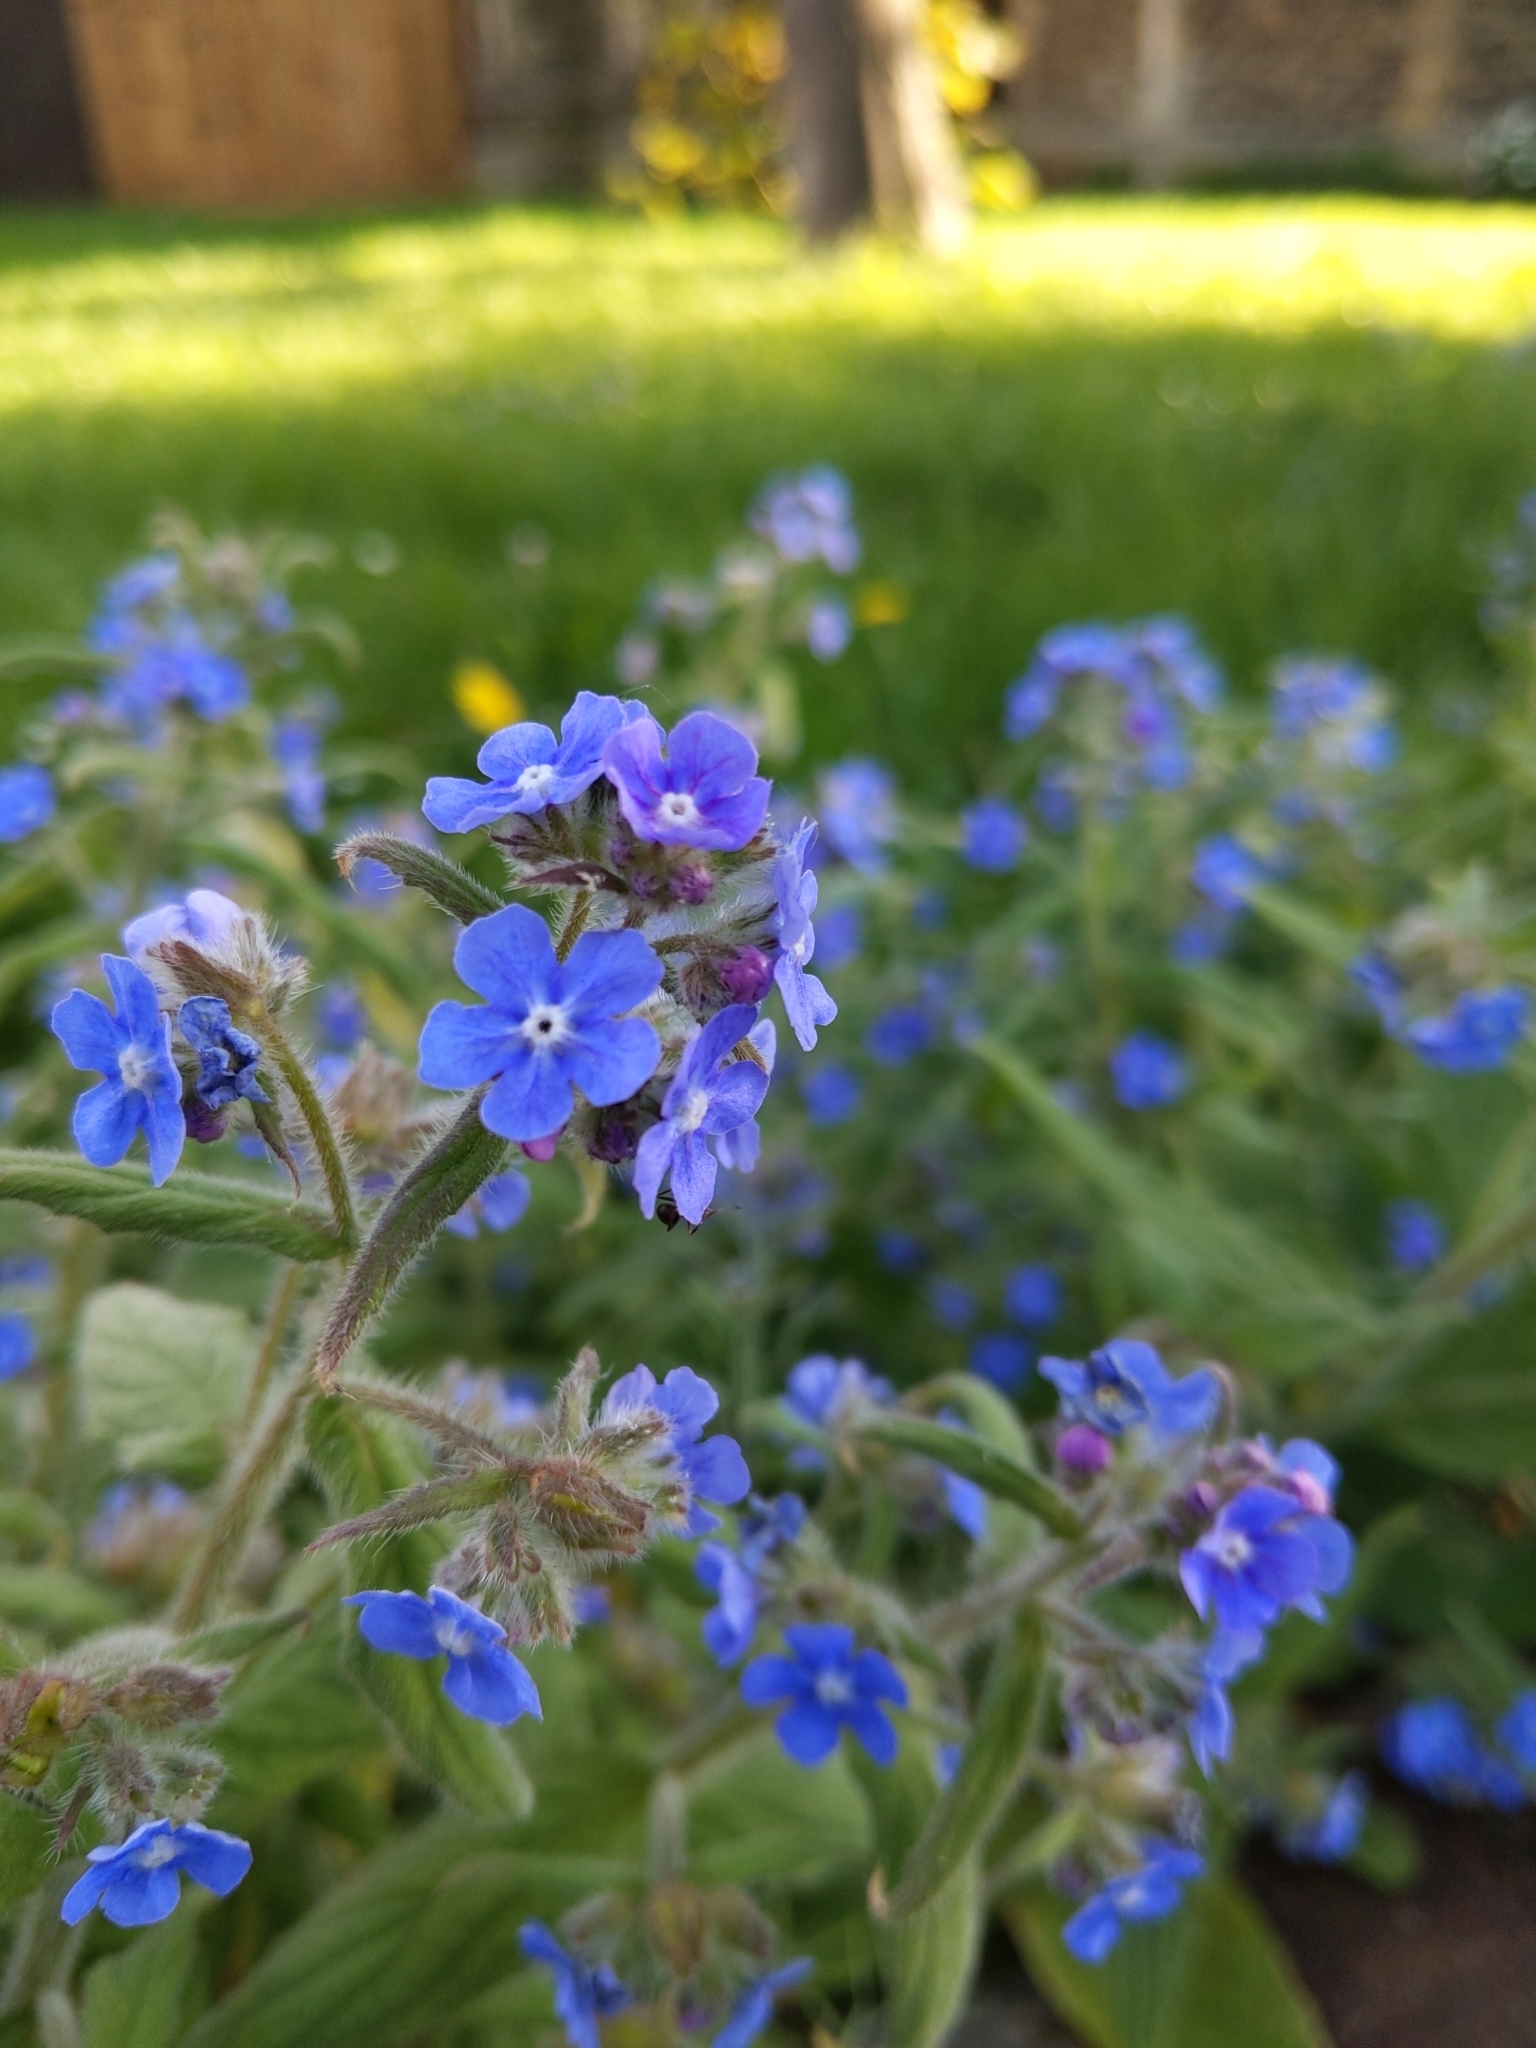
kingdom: Plantae
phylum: Tracheophyta
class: Magnoliopsida
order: Boraginales
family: Boraginaceae
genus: Pentaglottis
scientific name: Pentaglottis sempervirens
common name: Green alkanet
